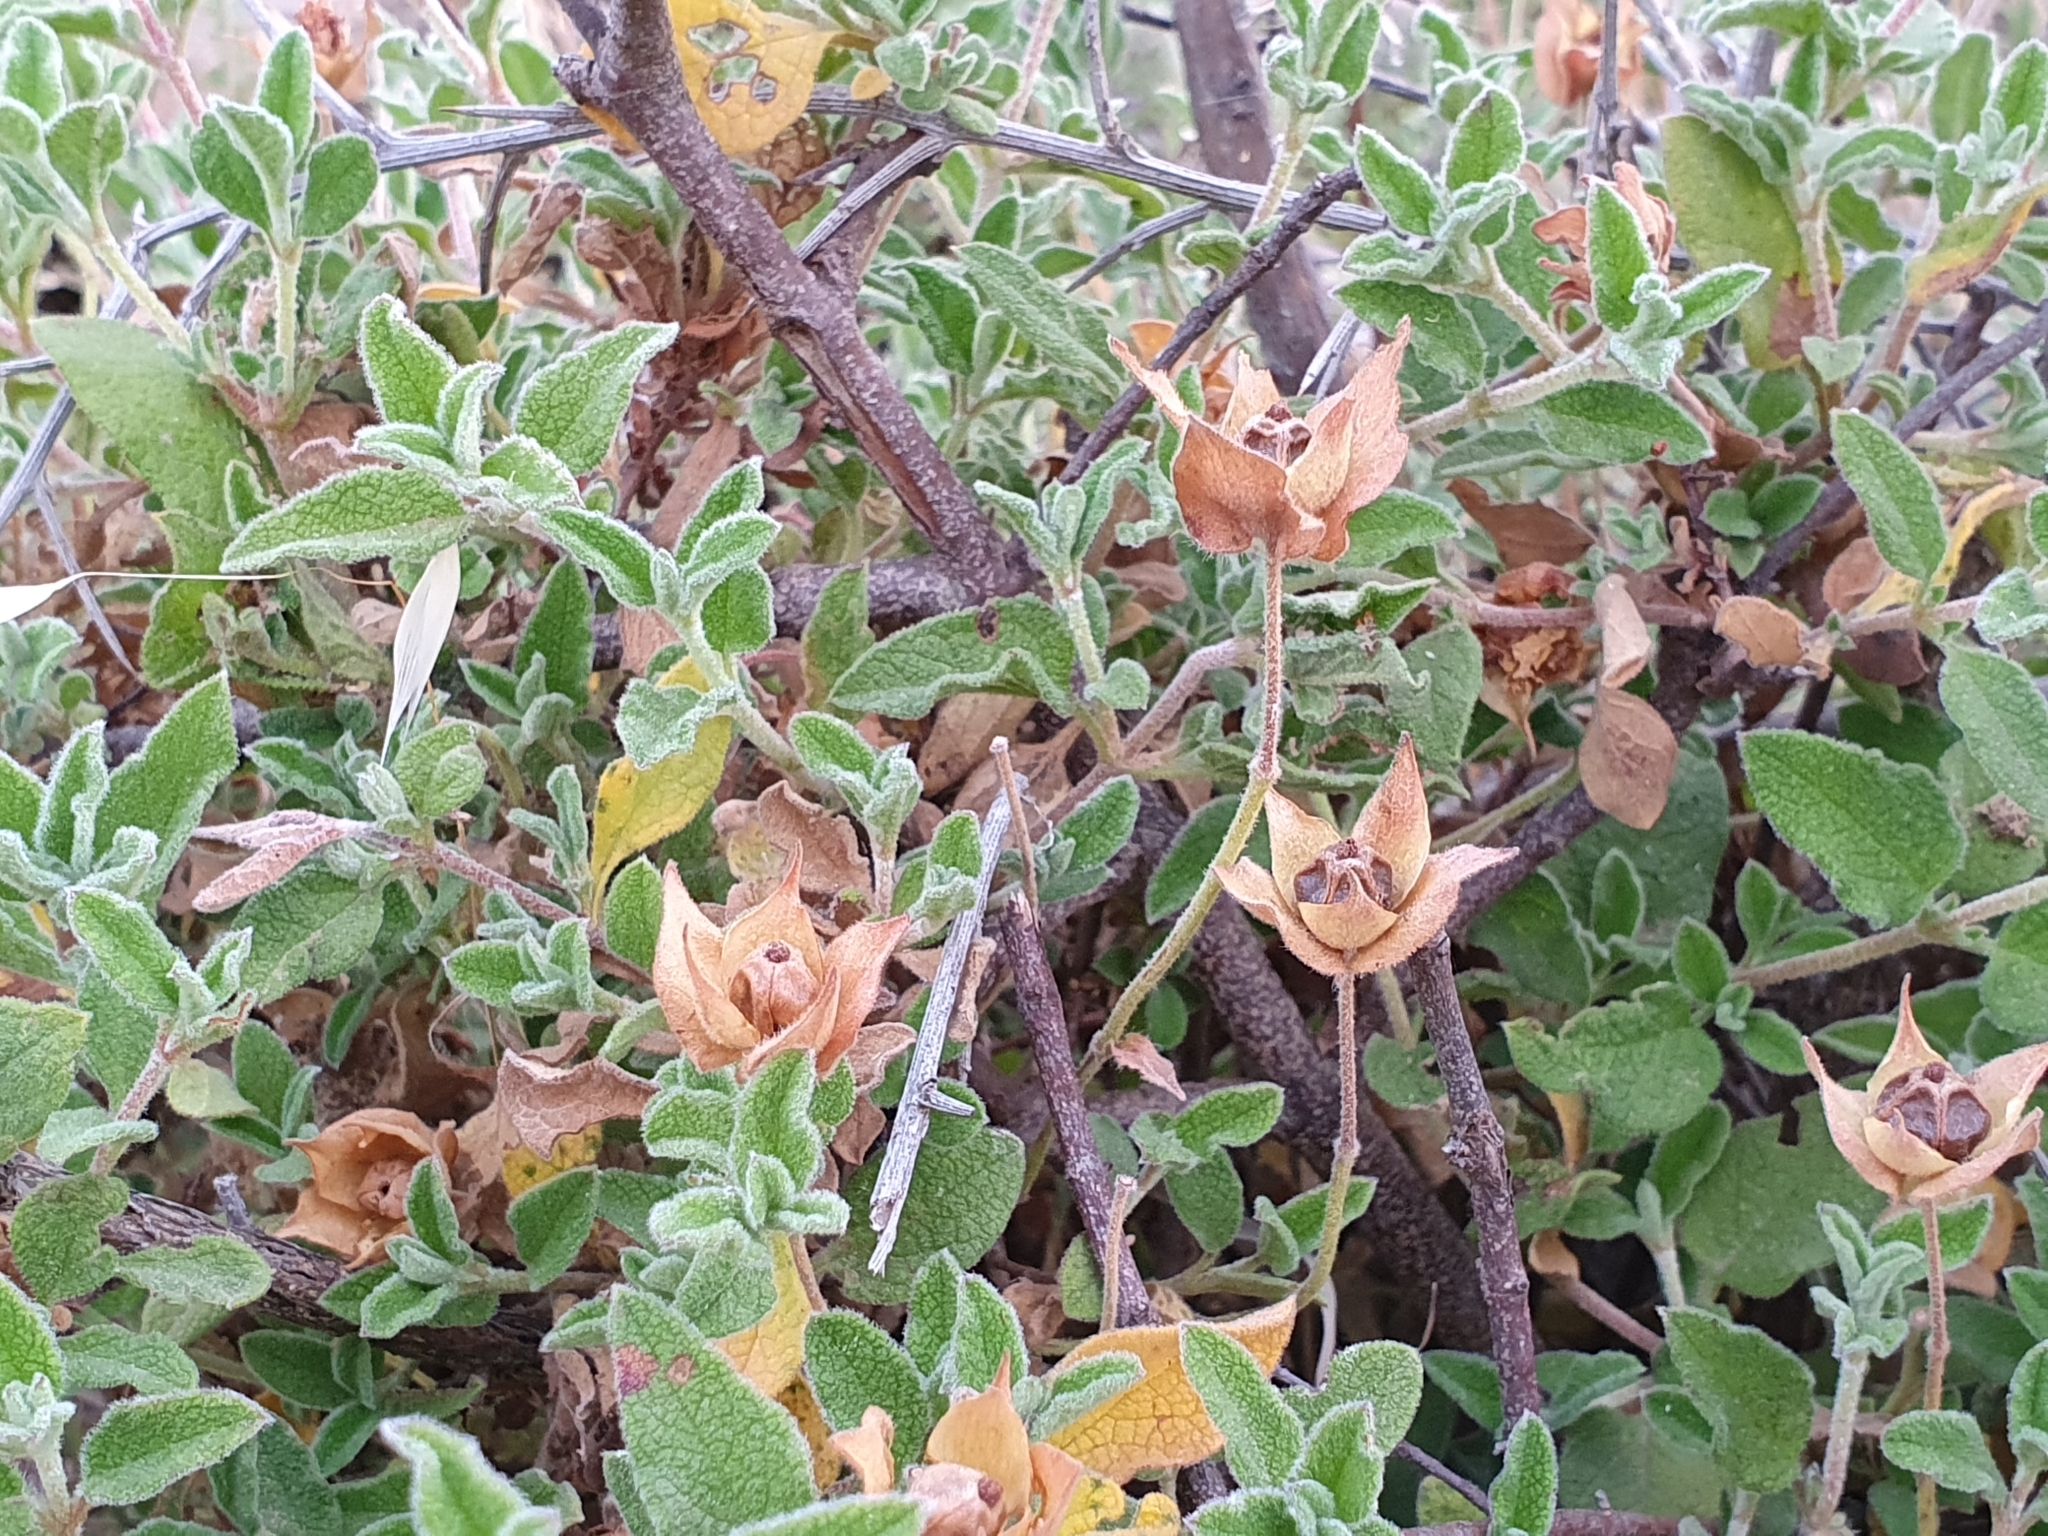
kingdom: Plantae
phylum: Tracheophyta
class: Magnoliopsida
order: Malvales
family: Cistaceae
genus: Cistus
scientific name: Cistus salviifolius
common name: Salvia cistus
